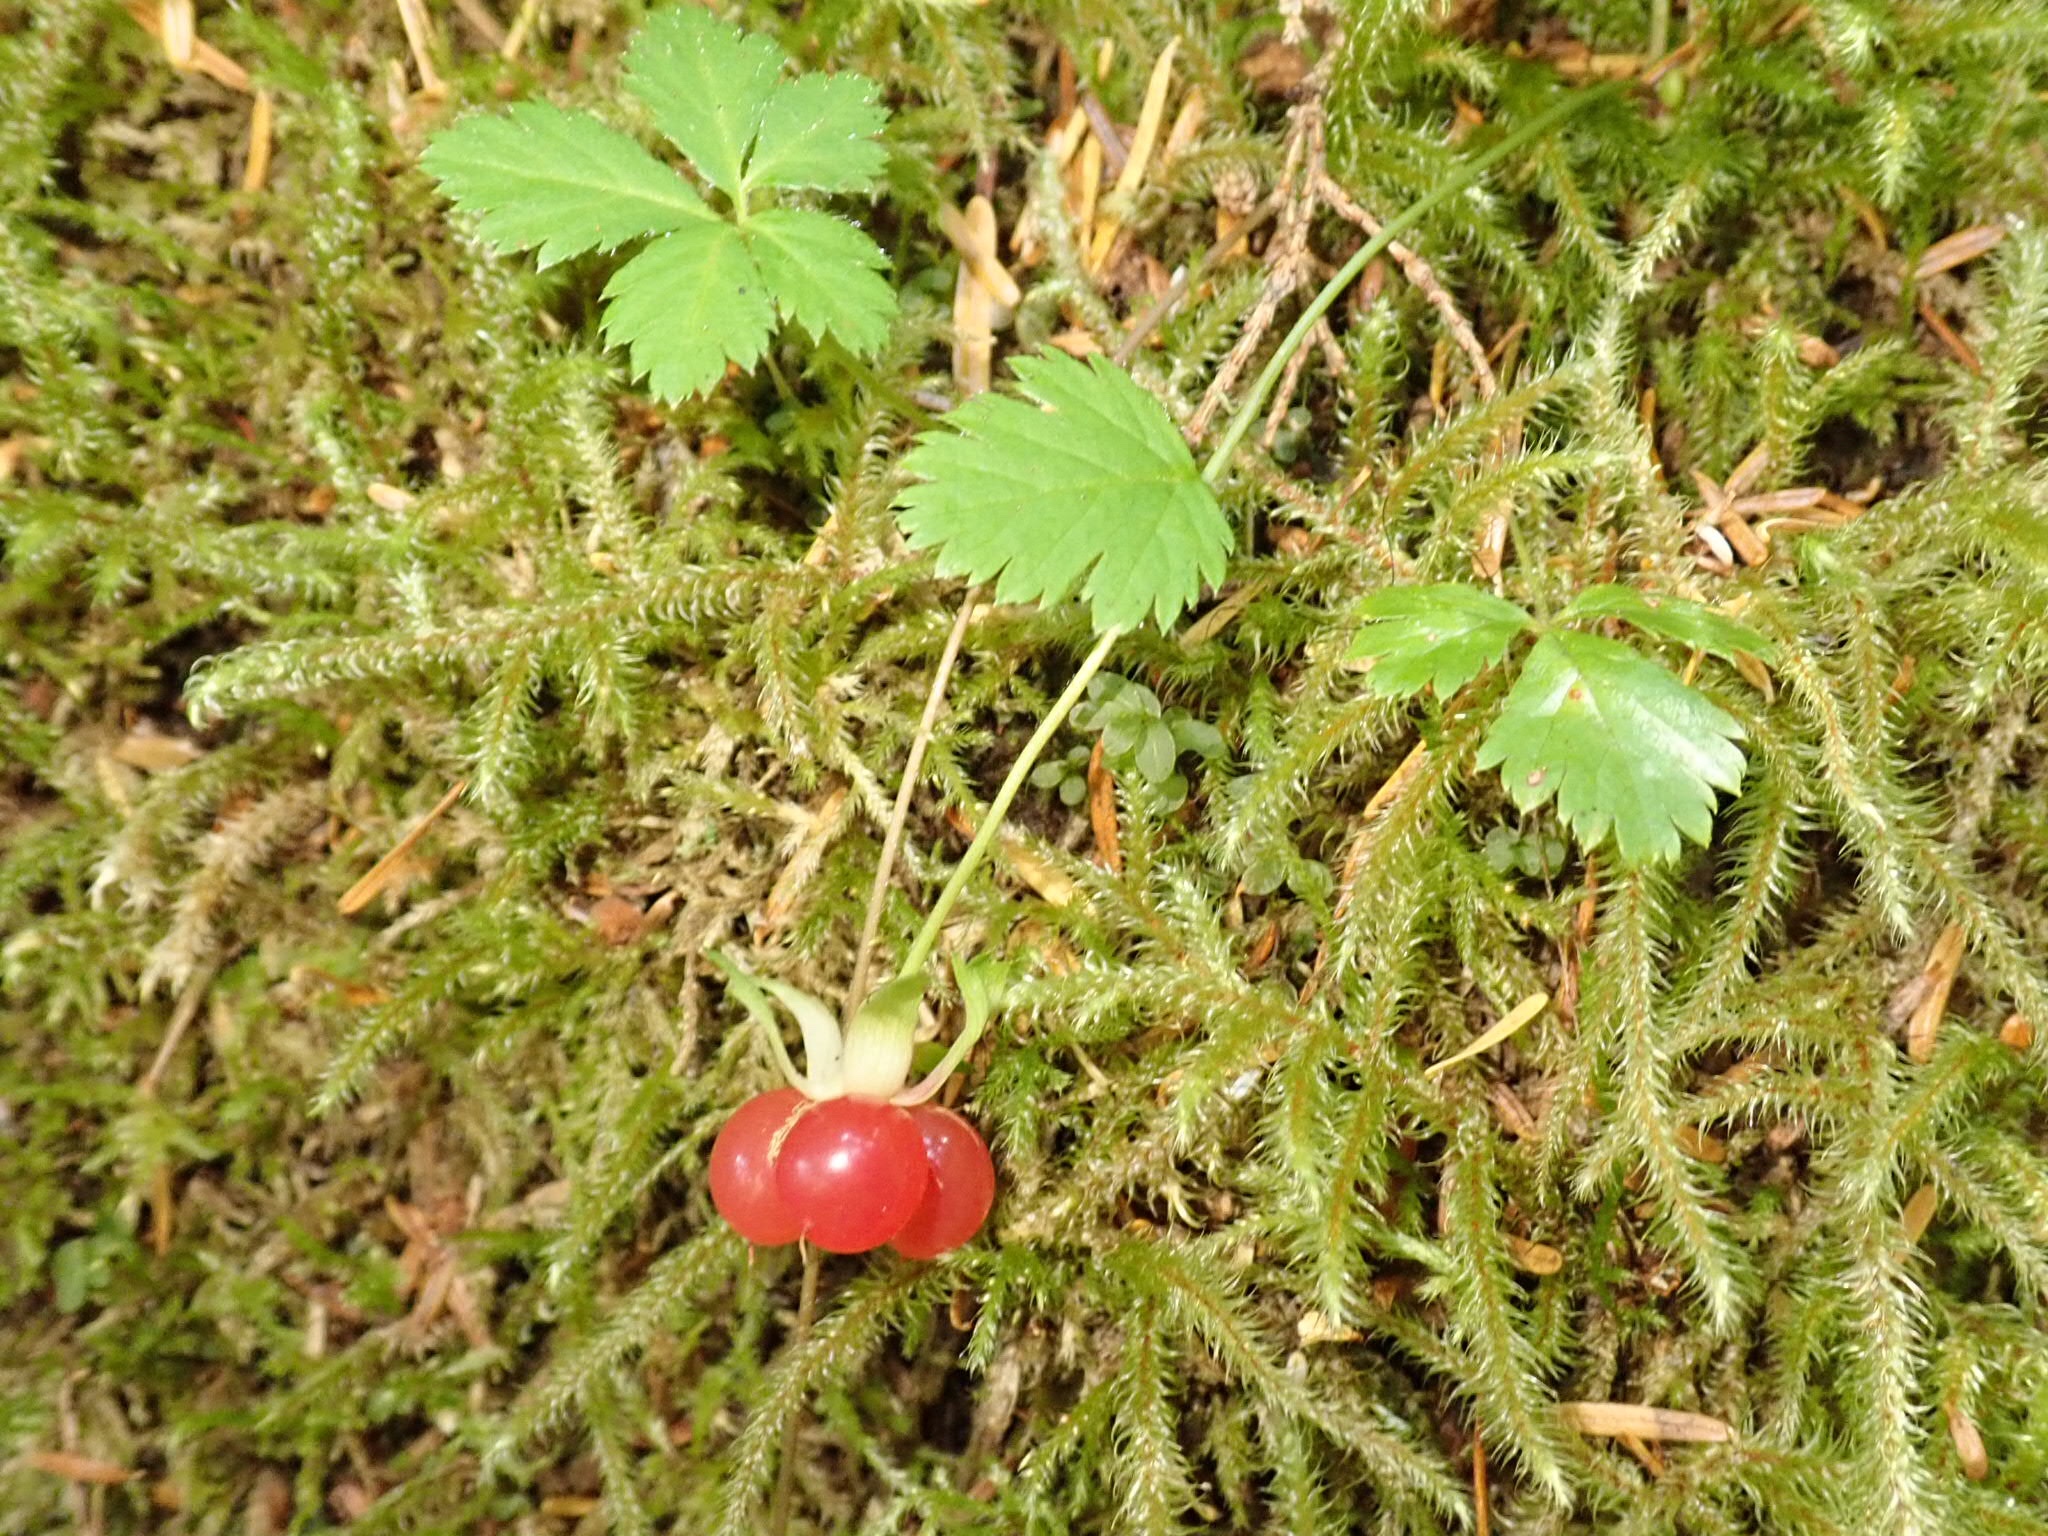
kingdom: Plantae
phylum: Tracheophyta
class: Magnoliopsida
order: Rosales
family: Rosaceae
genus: Rubus
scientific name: Rubus pedatus
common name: Creeping raspberry
